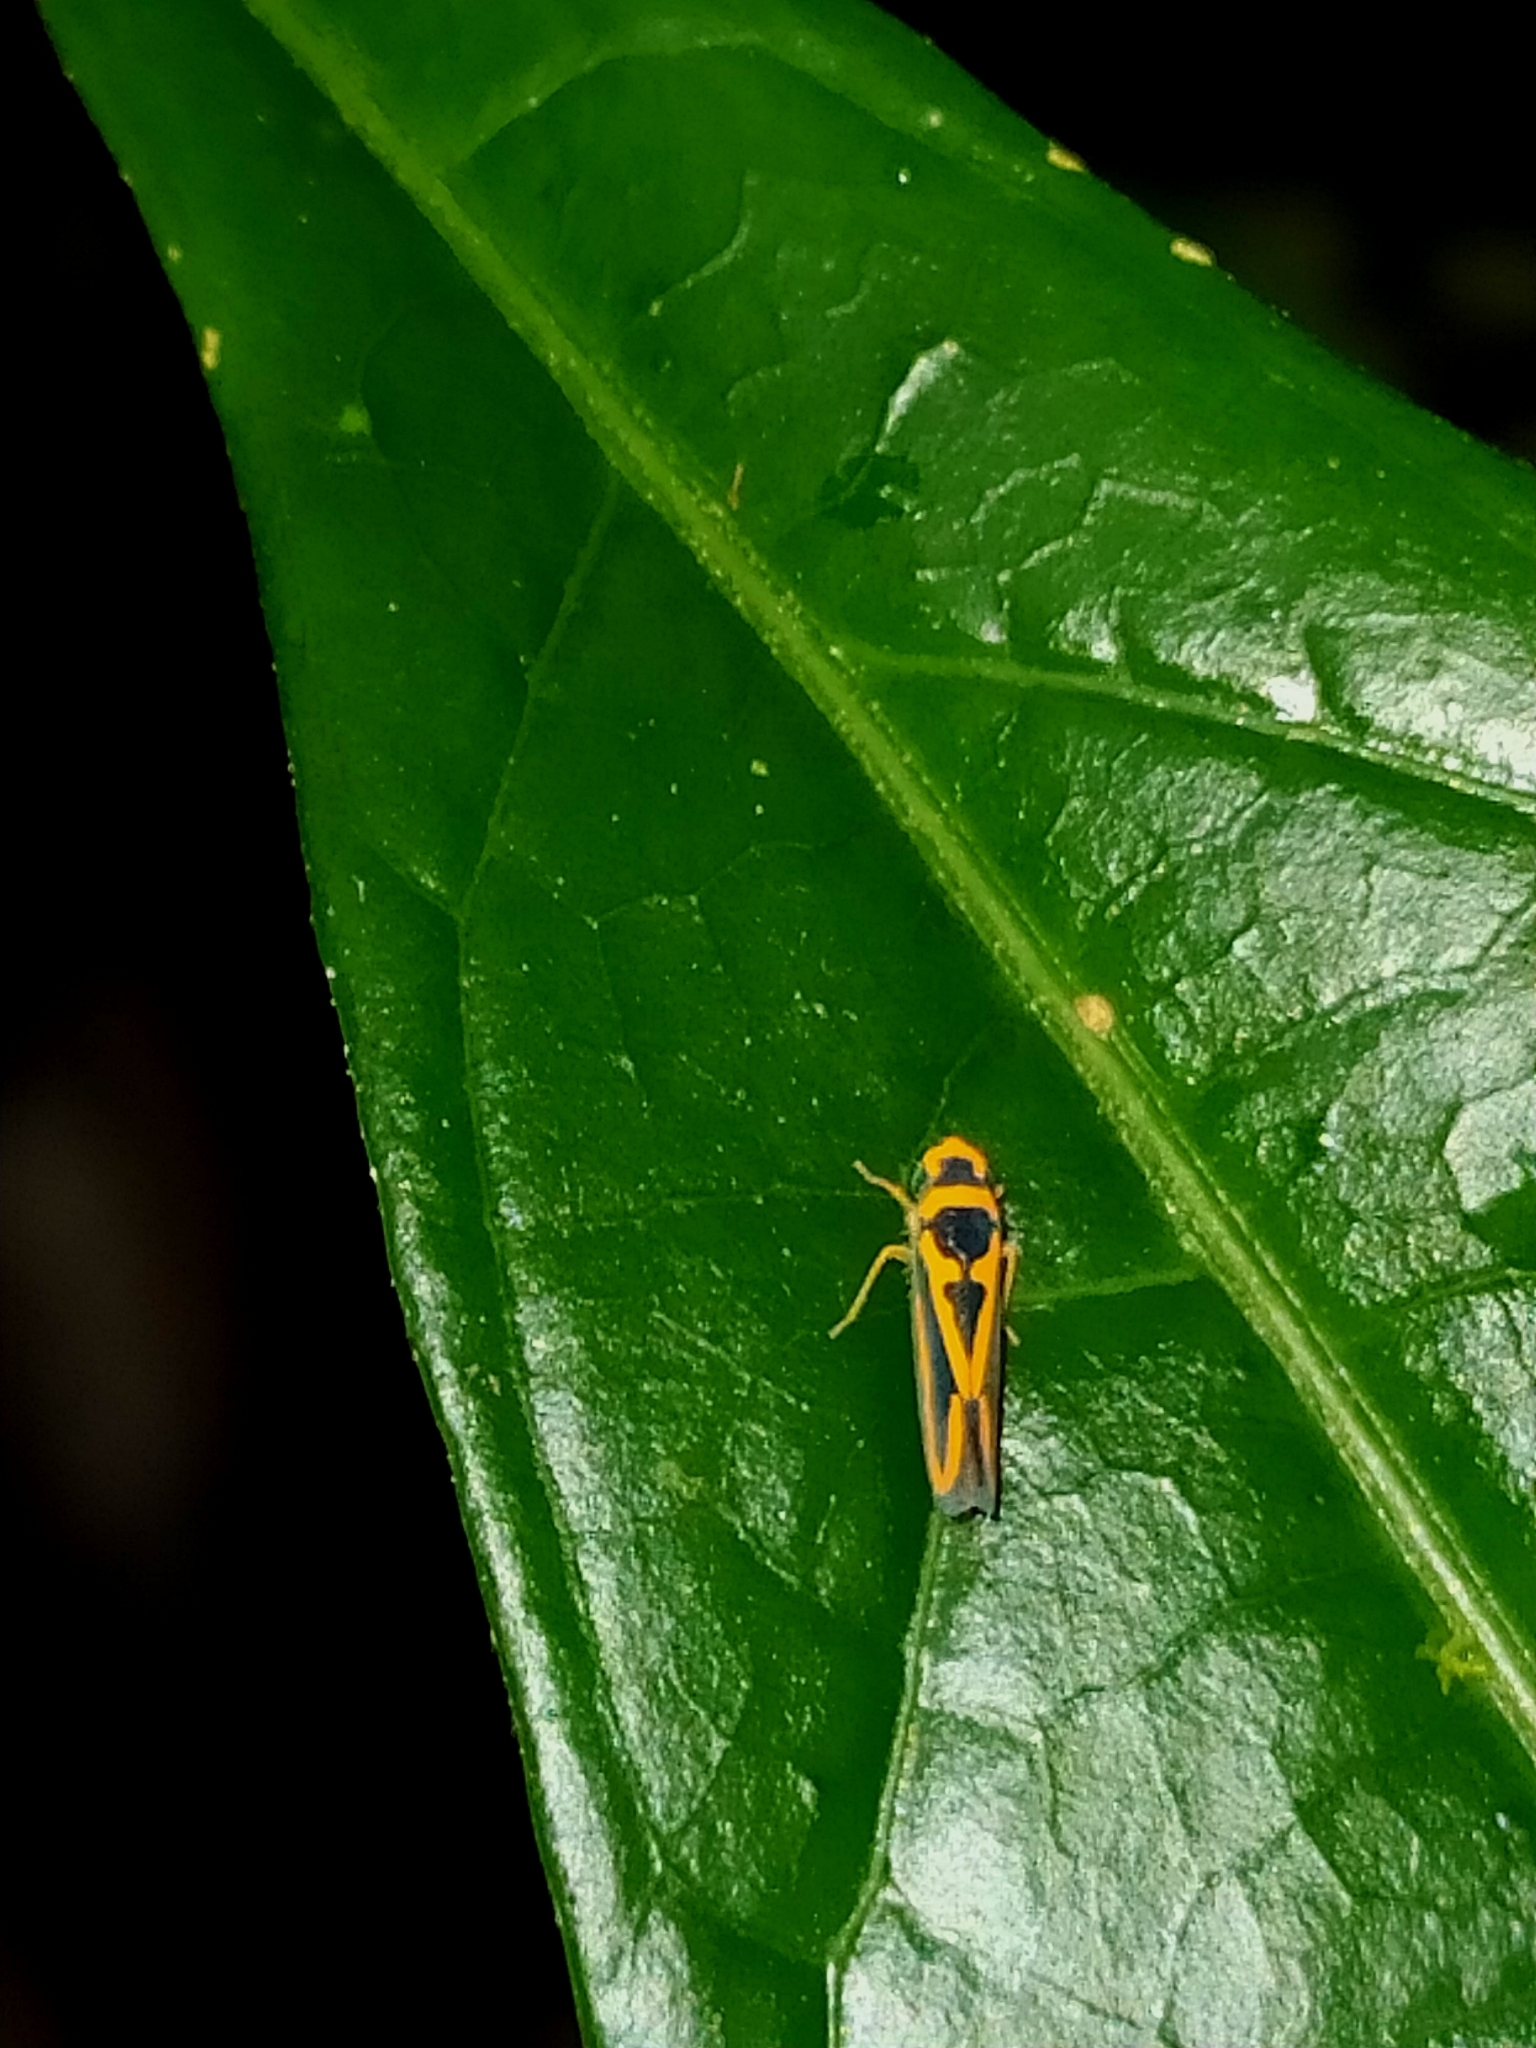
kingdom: Animalia
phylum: Arthropoda
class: Insecta
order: Hemiptera
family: Cicadellidae
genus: Palingonalia
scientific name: Palingonalia bigutta
